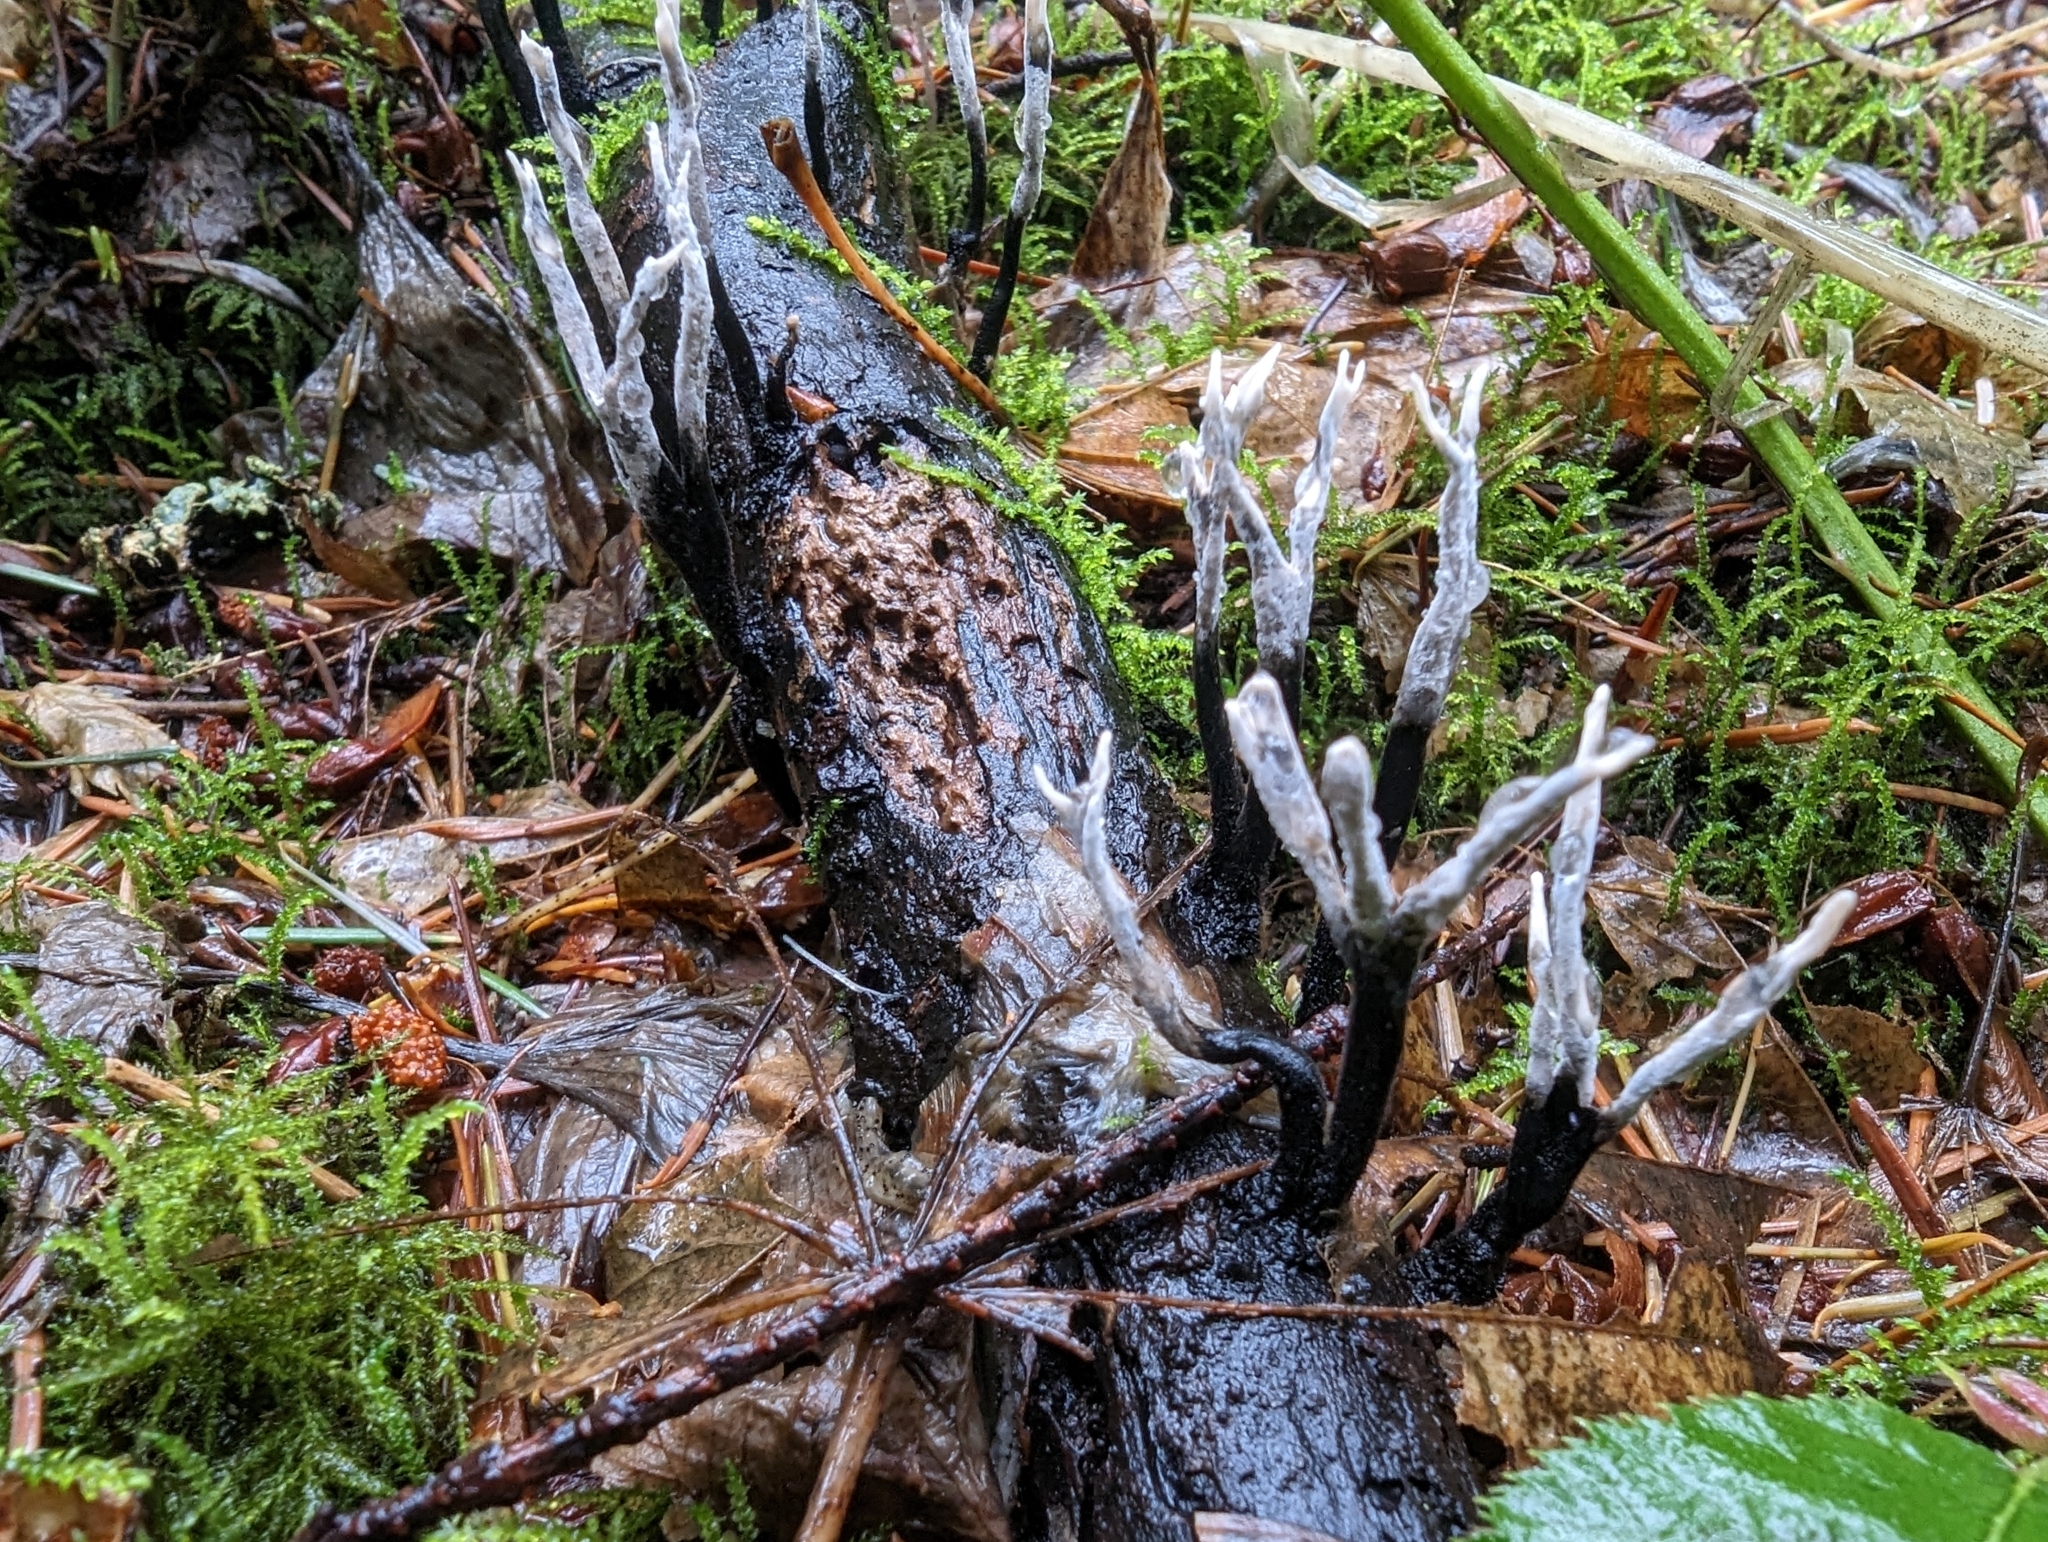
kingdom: Fungi
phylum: Ascomycota
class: Sordariomycetes
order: Xylariales
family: Xylariaceae
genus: Xylaria
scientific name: Xylaria hypoxylon
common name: Candle-snuff fungus
